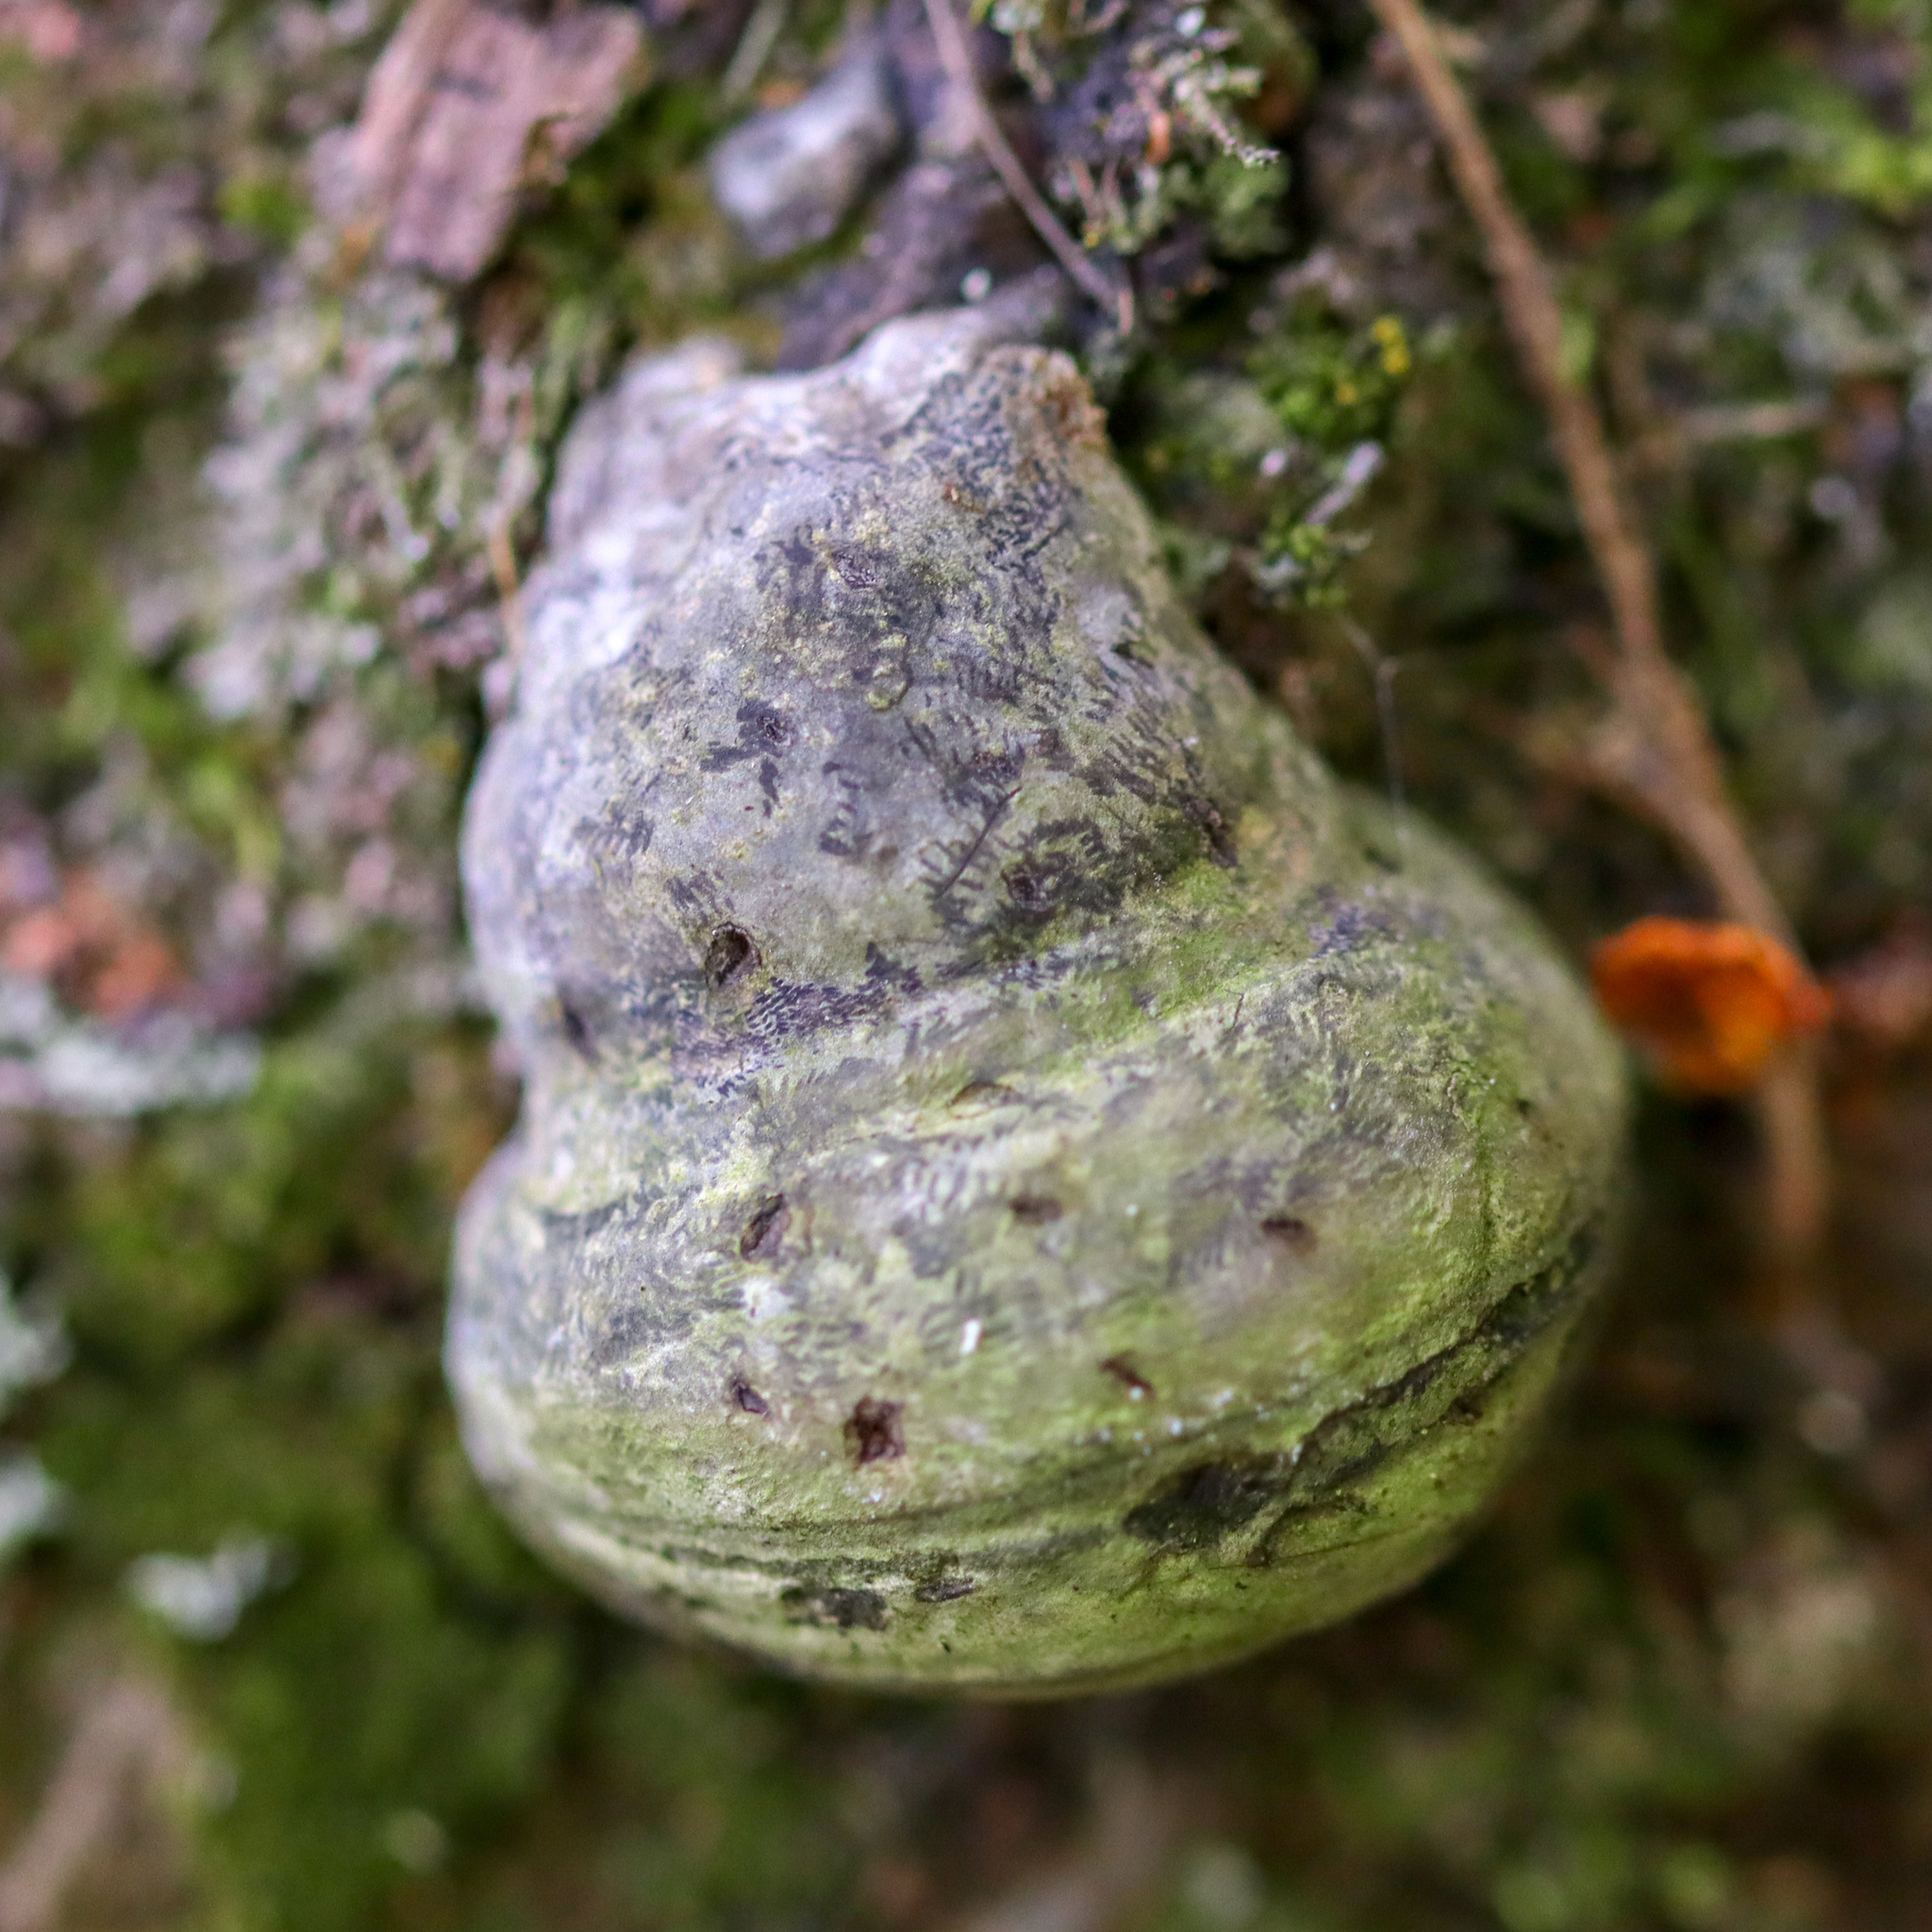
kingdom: Fungi
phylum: Basidiomycota
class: Agaricomycetes
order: Polyporales
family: Polyporaceae
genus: Fomes
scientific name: Fomes fomentarius
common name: Hoof fungus
